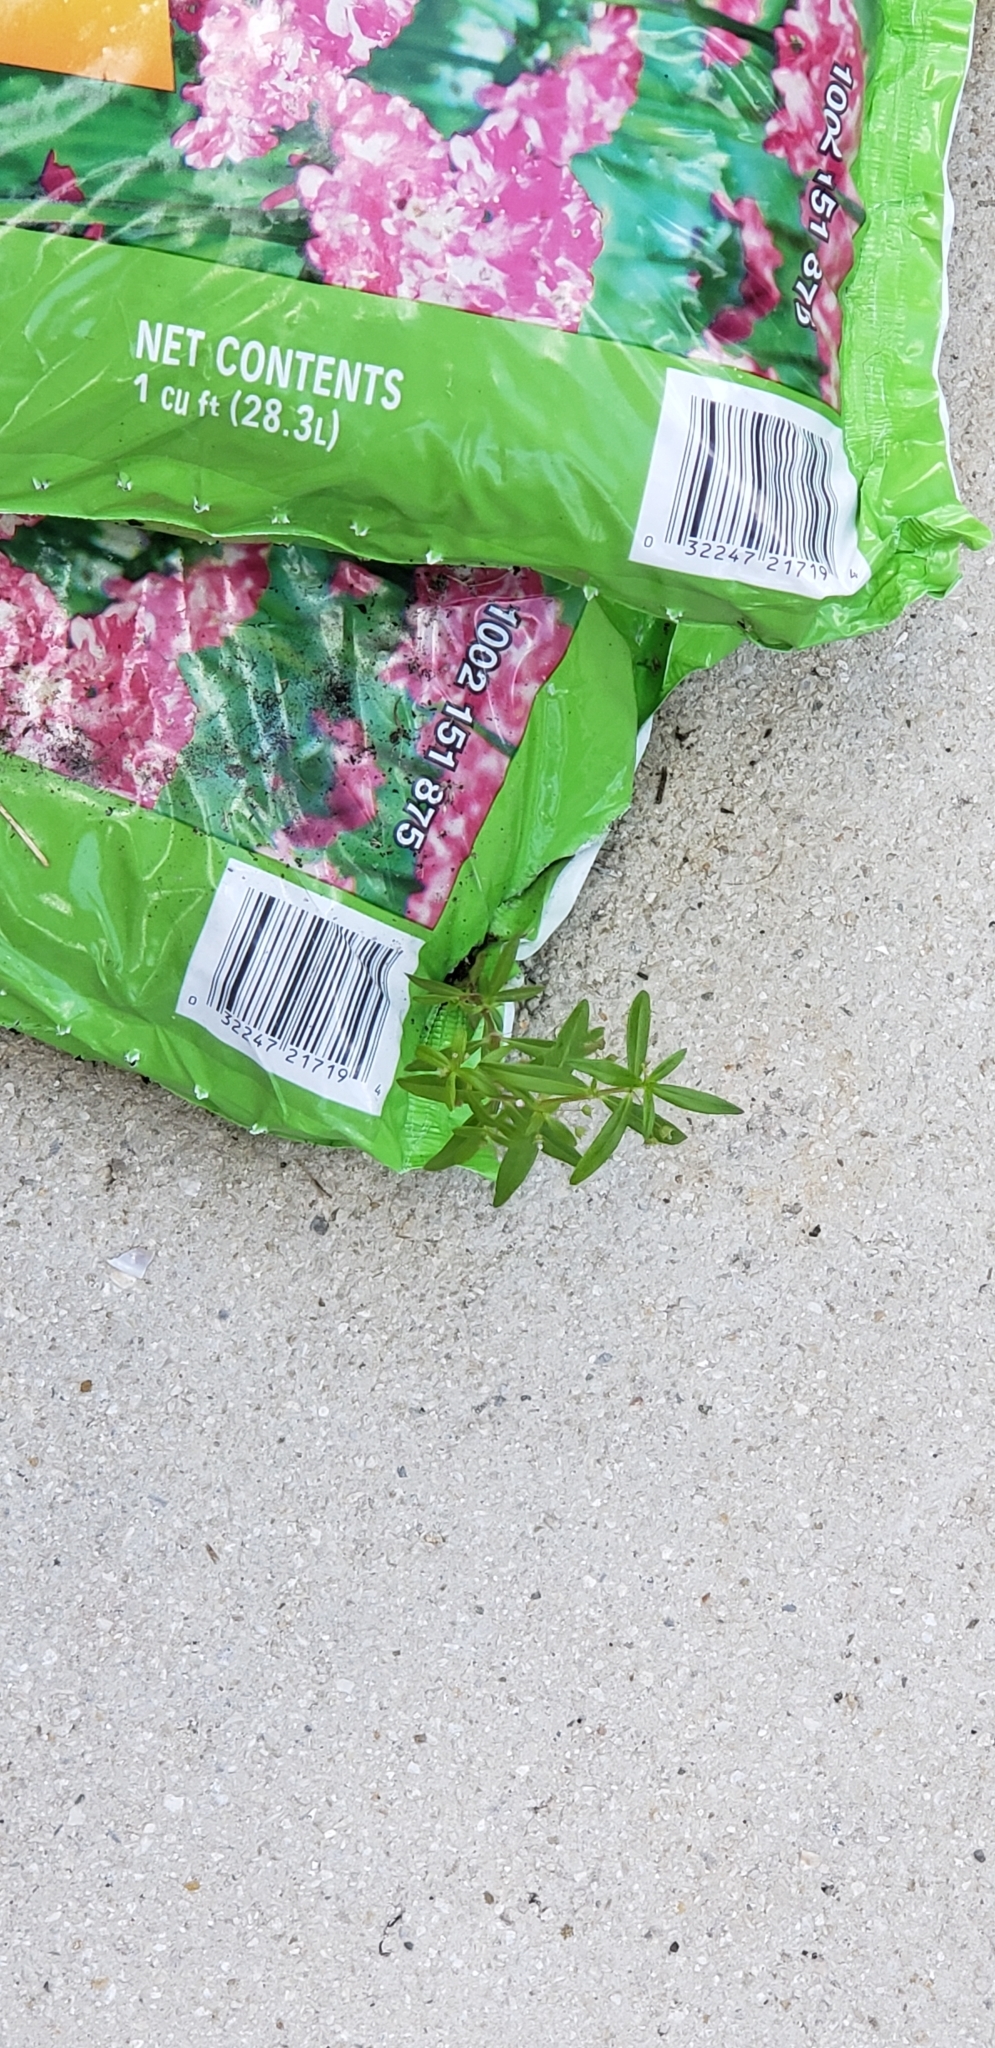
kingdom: Plantae
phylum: Tracheophyta
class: Magnoliopsida
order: Gentianales
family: Rubiaceae
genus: Oldenlandia
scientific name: Oldenlandia corymbosa
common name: Flat-top mille graines
